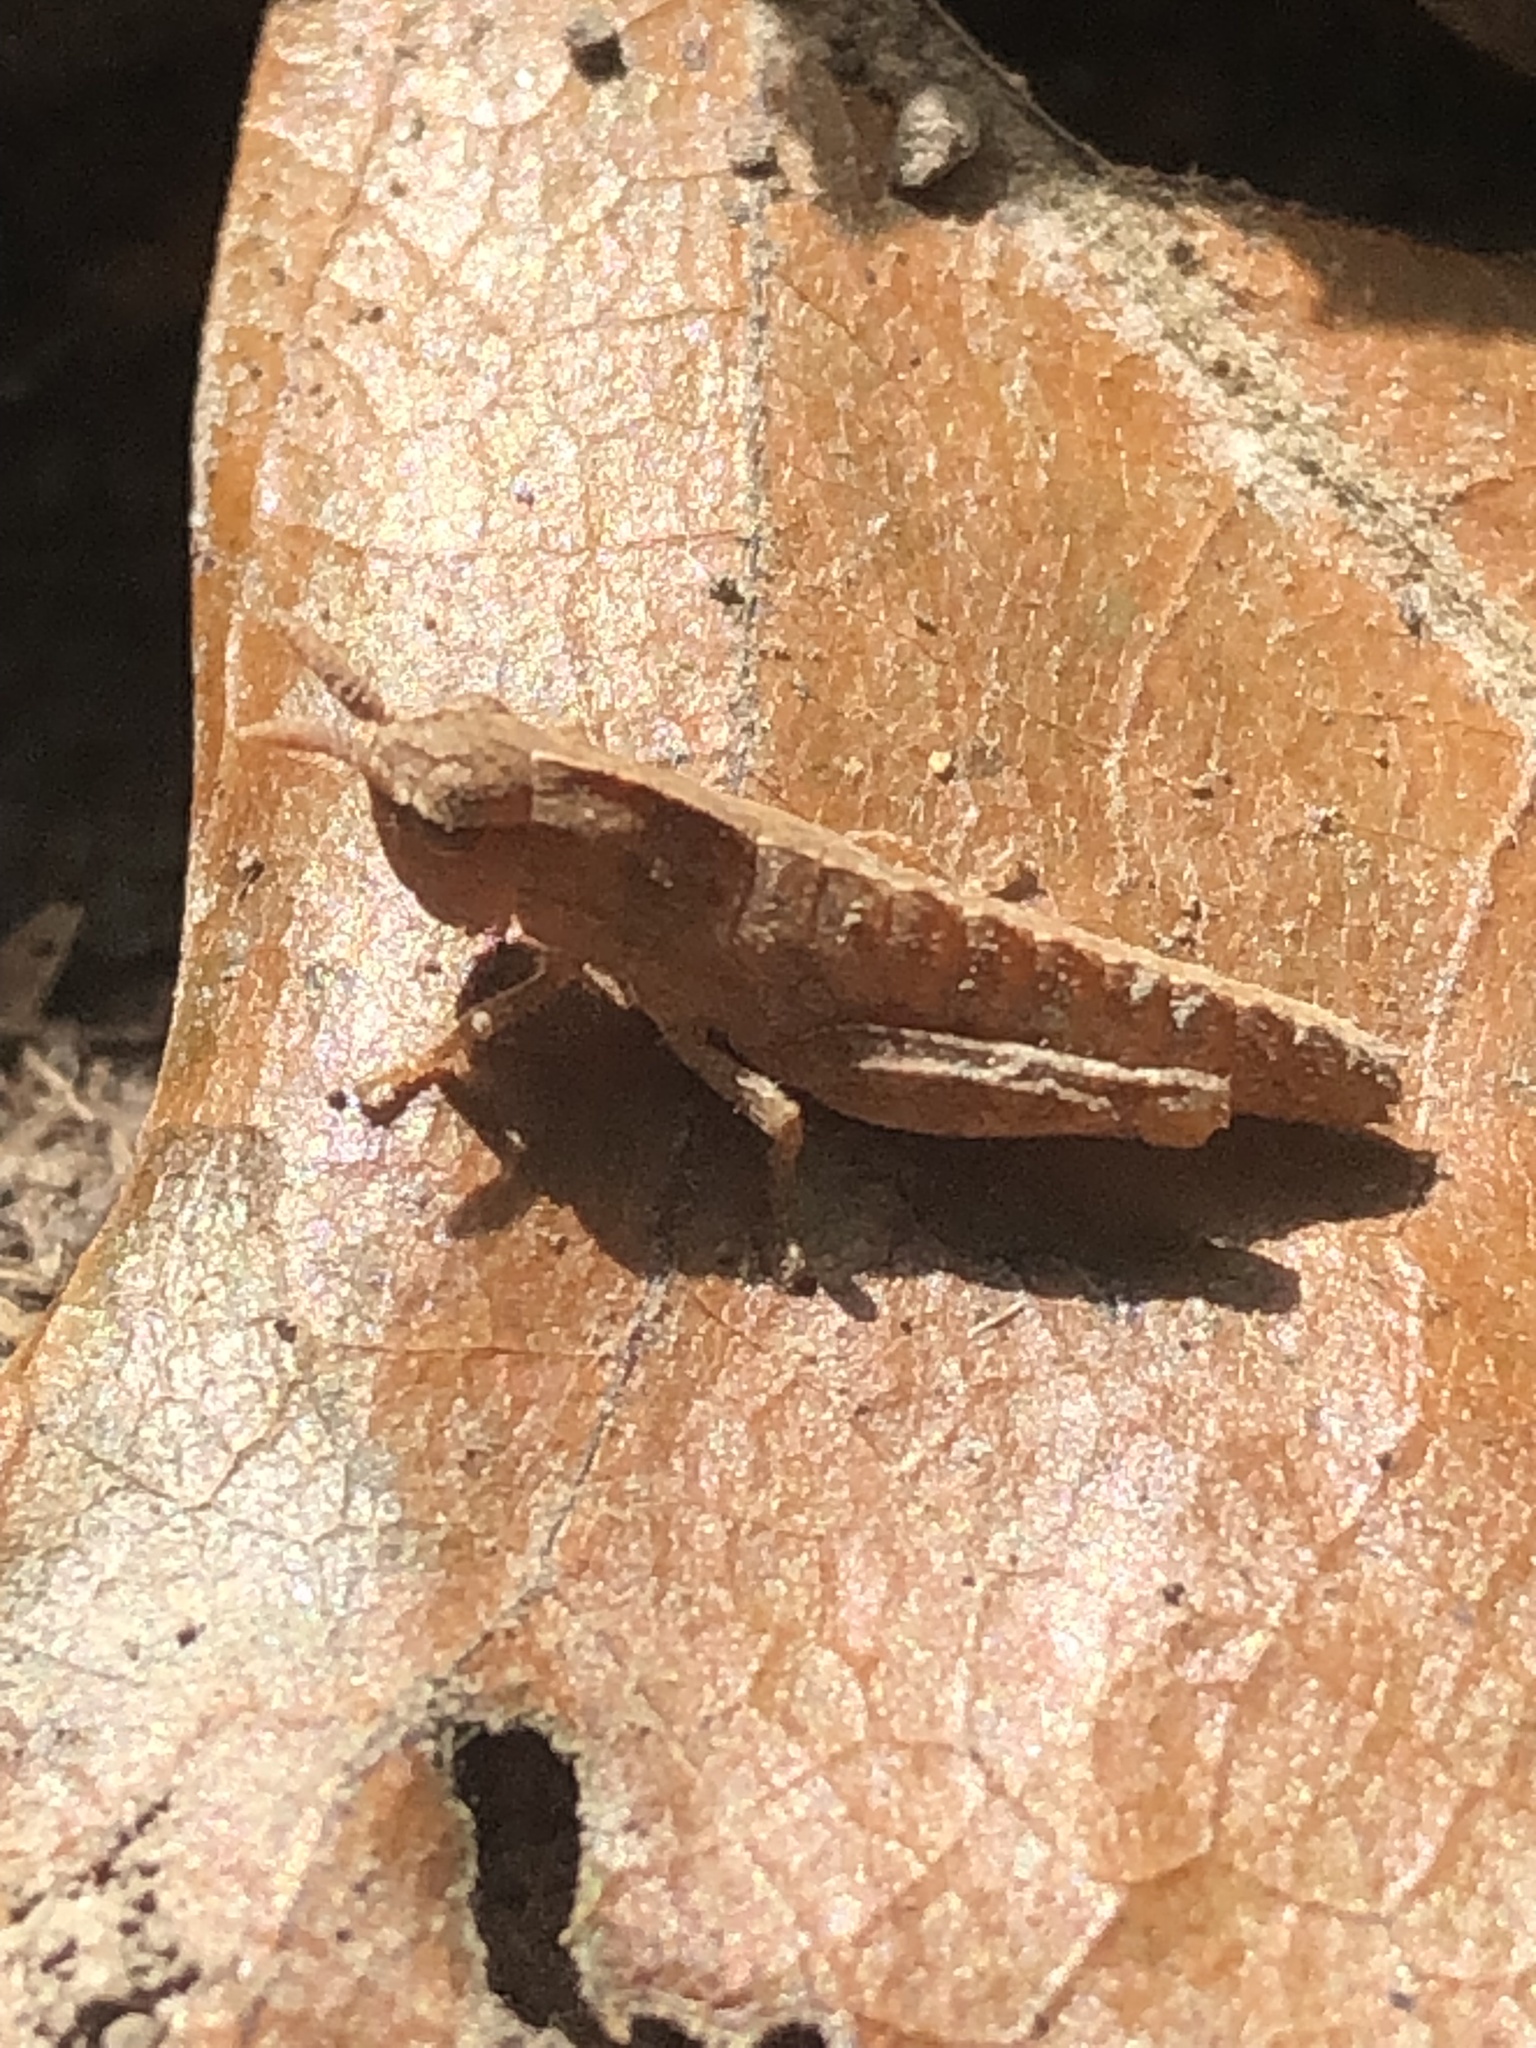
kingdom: Animalia
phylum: Arthropoda
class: Insecta
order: Orthoptera
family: Acrididae
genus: Chortophaga
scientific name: Chortophaga viridifasciata
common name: Green-striped grasshopper
